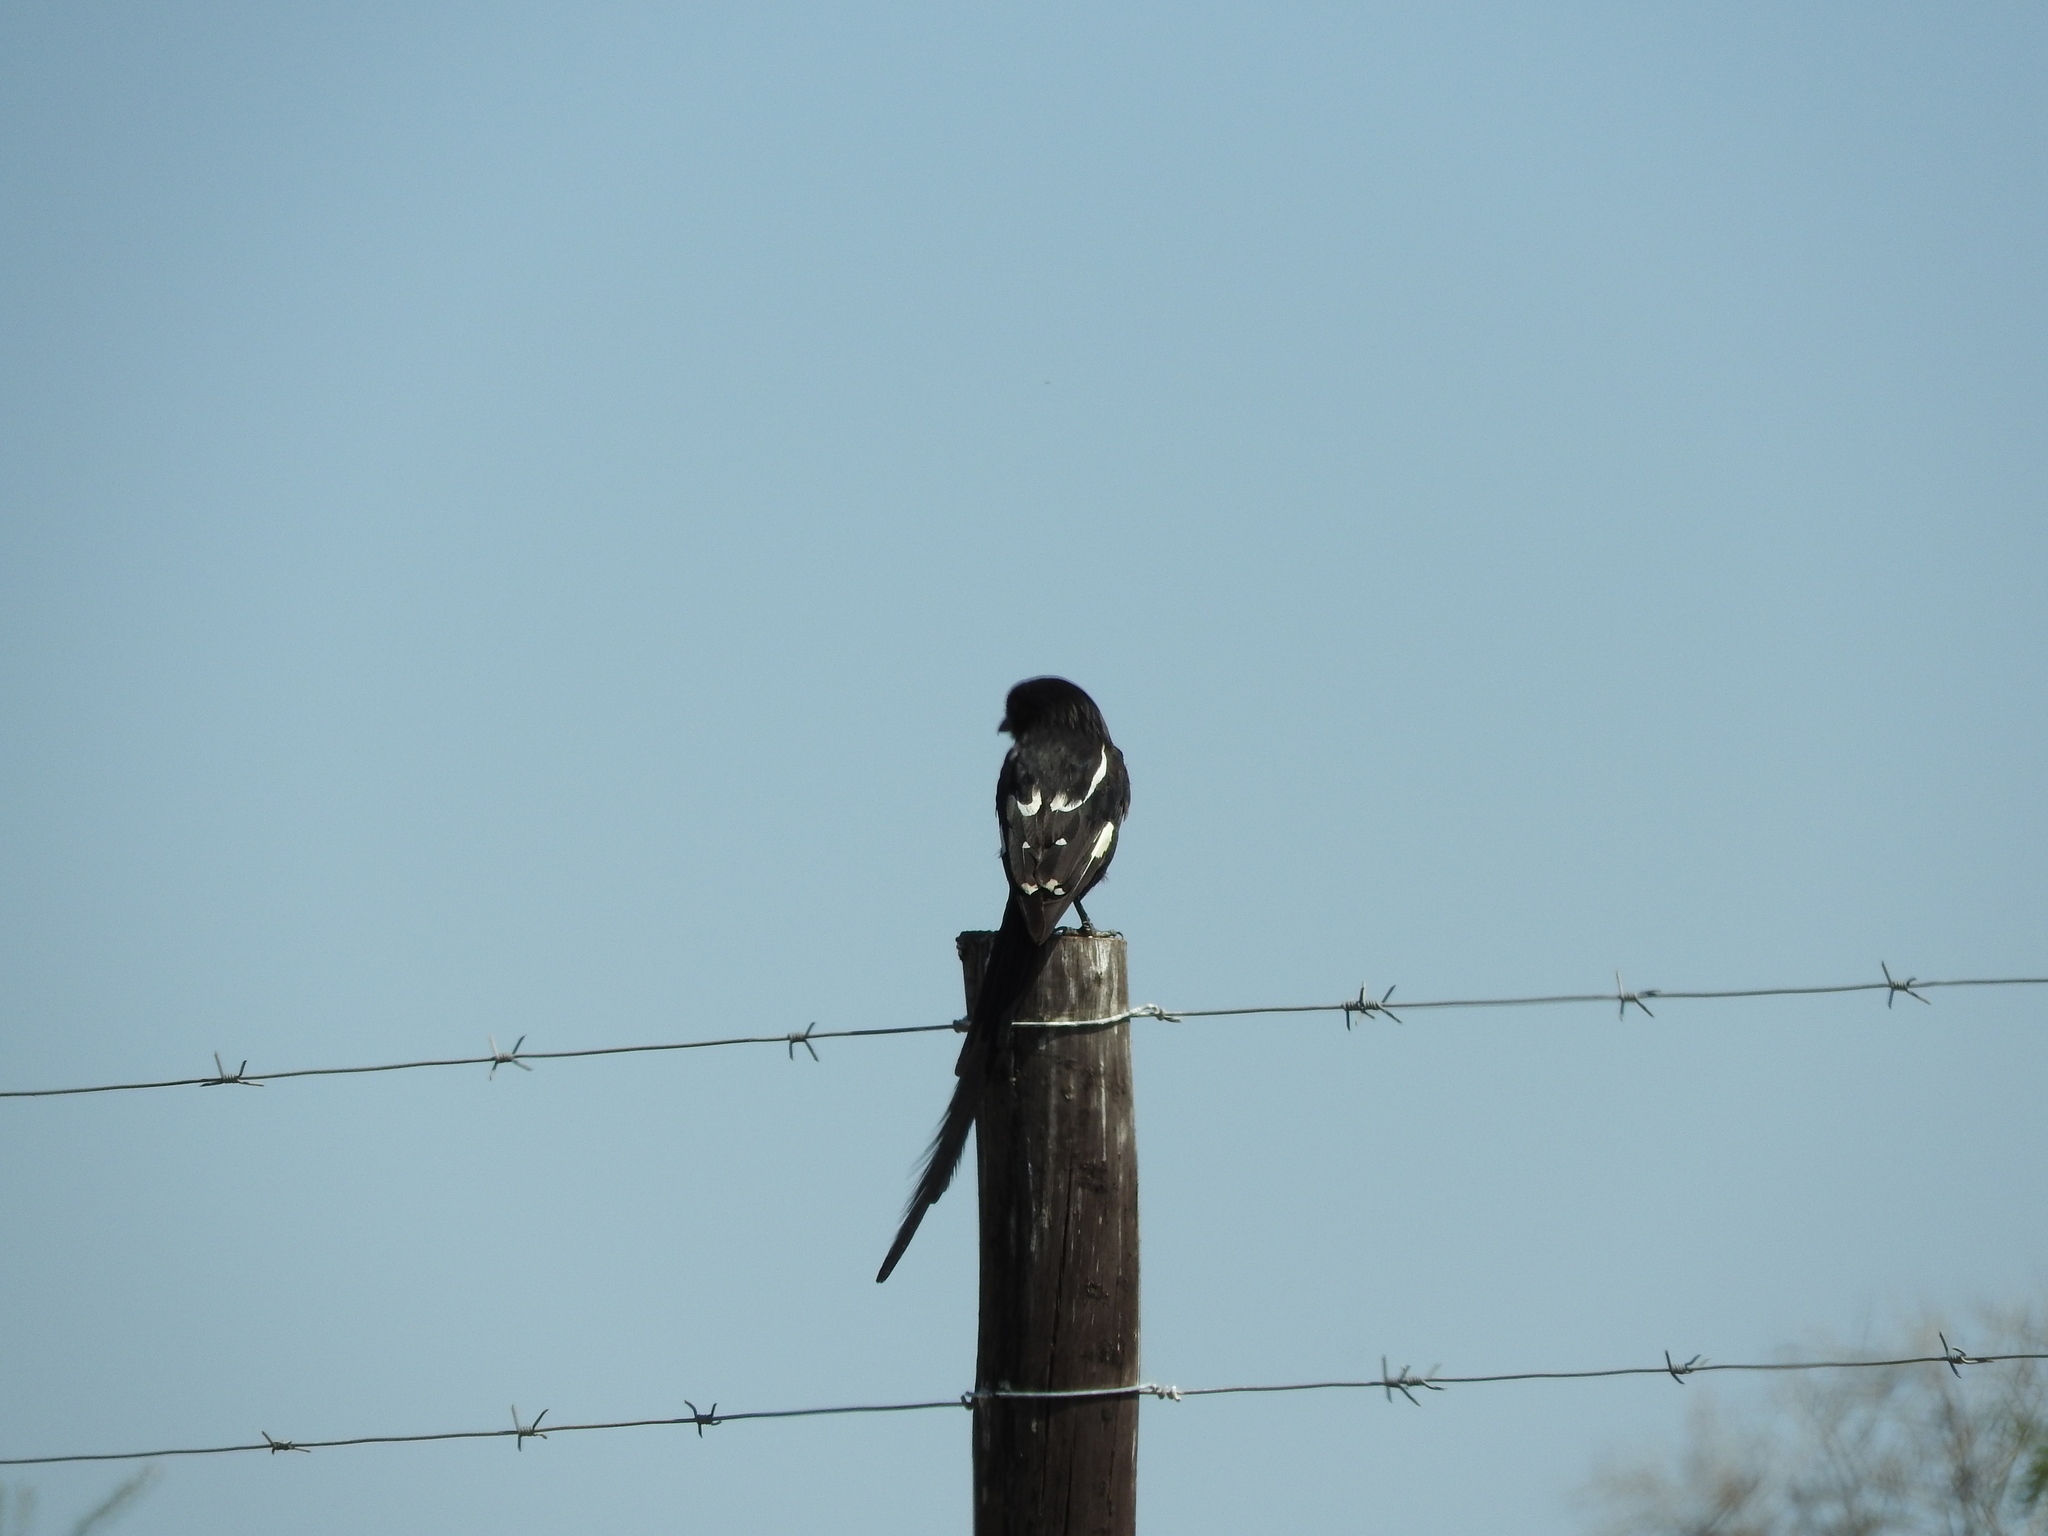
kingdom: Animalia
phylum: Chordata
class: Aves
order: Passeriformes
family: Laniidae
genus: Urolestes
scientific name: Urolestes melanoleucus
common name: Magpie shrike
